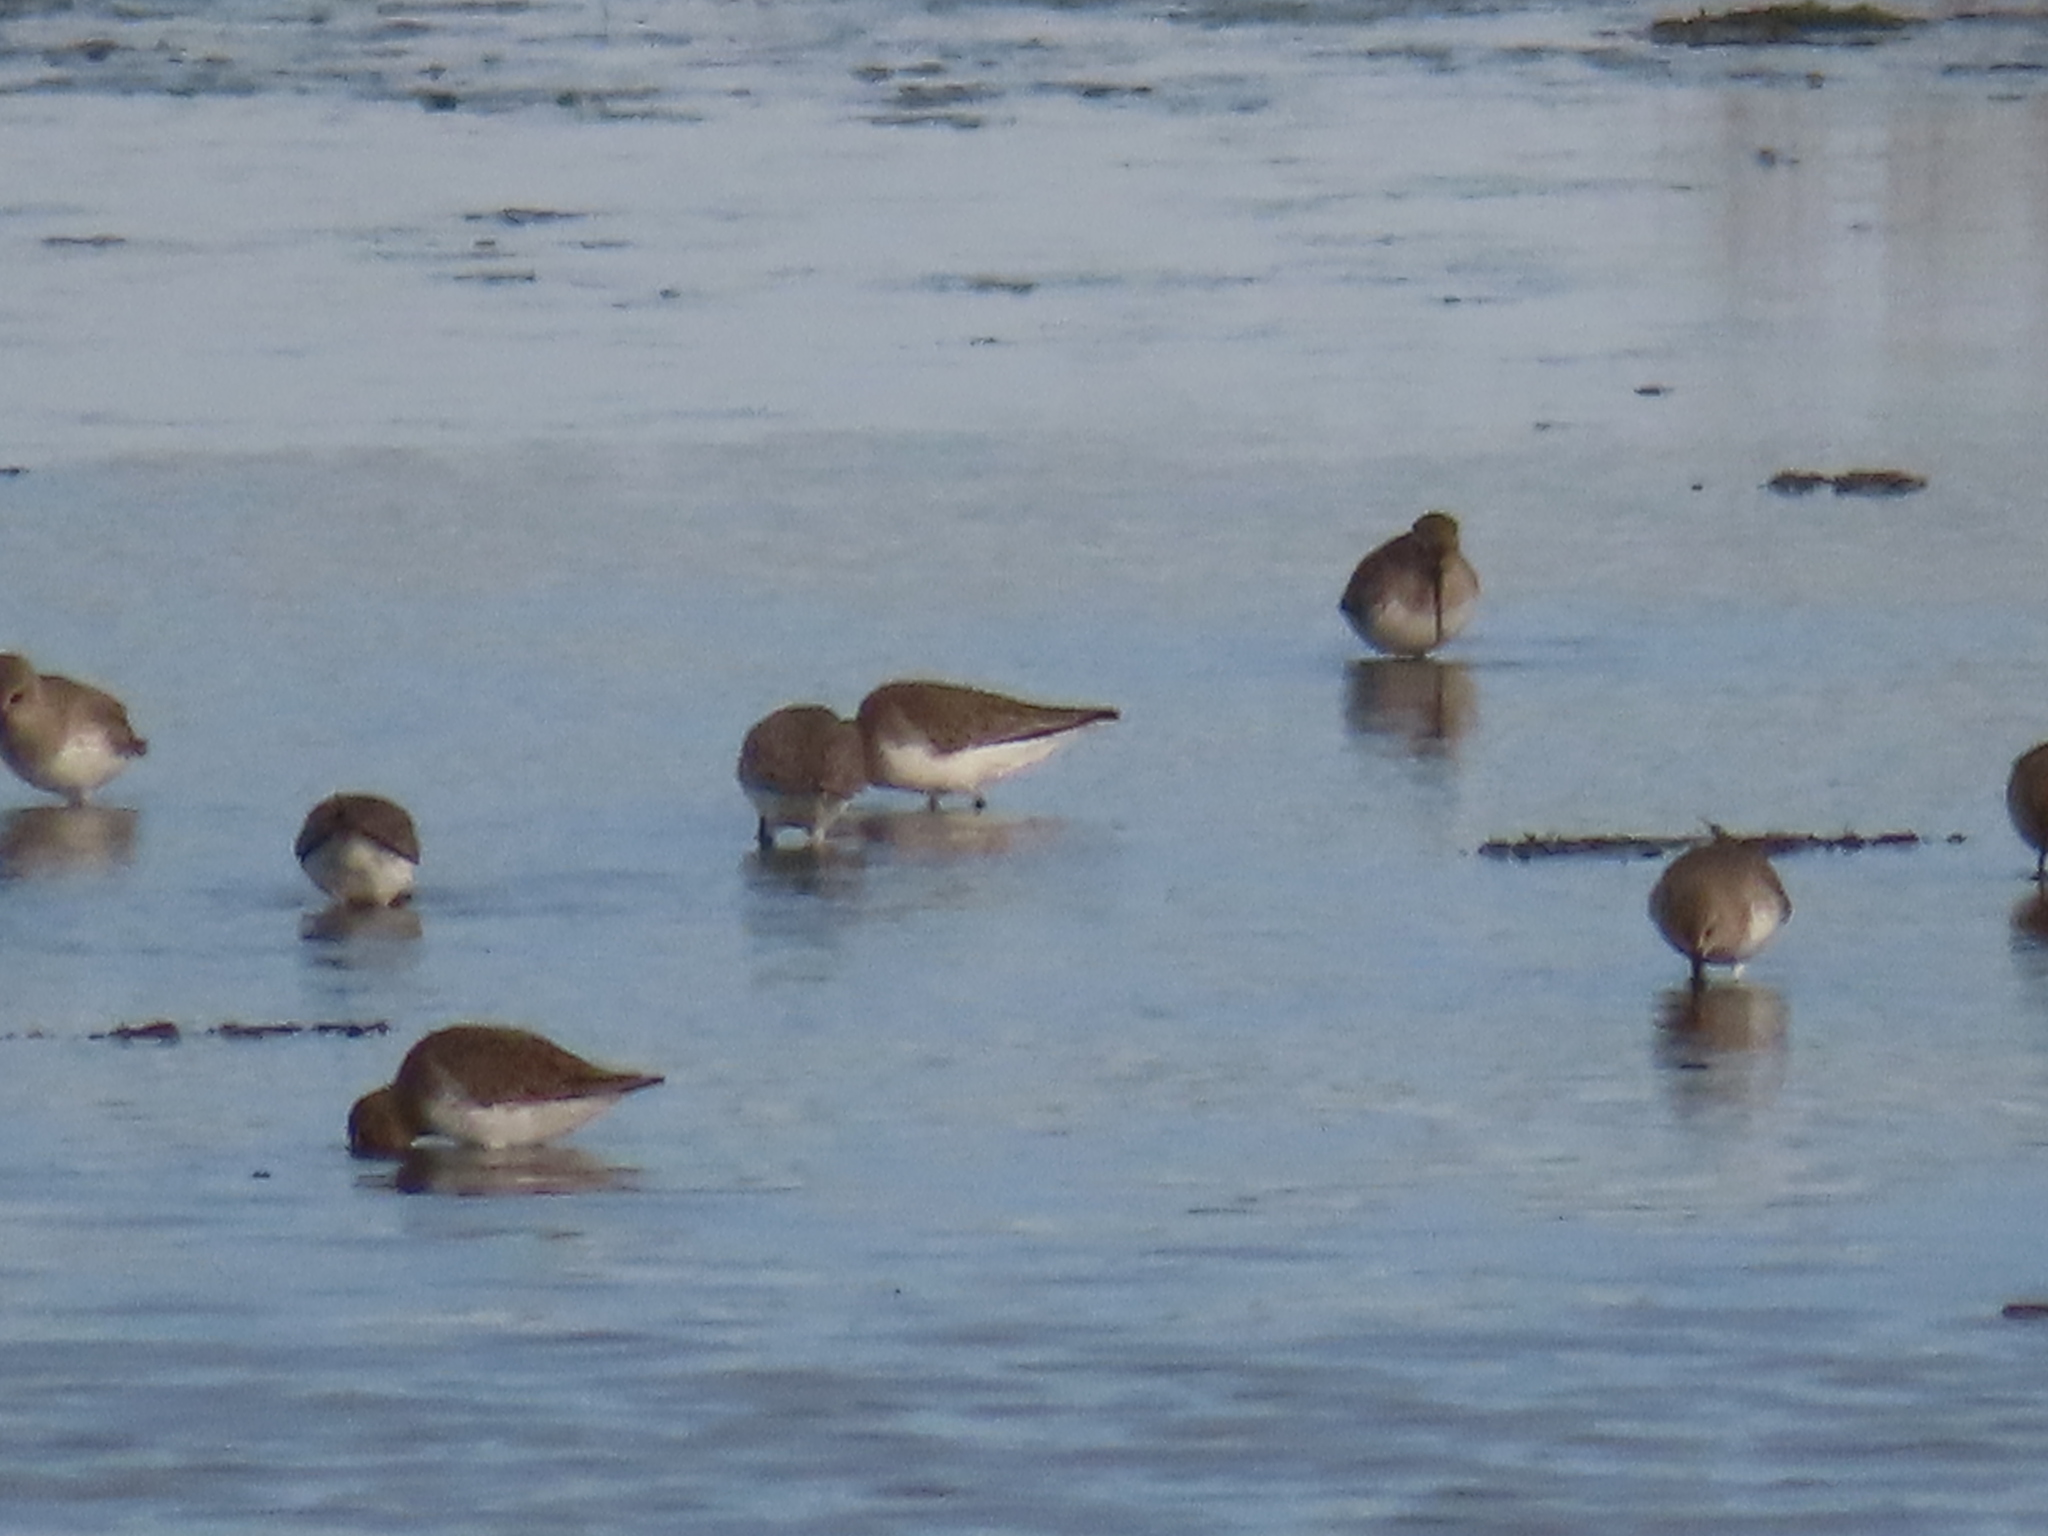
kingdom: Animalia
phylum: Chordata
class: Aves
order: Charadriiformes
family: Scolopacidae
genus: Calidris
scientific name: Calidris alpina
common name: Dunlin
